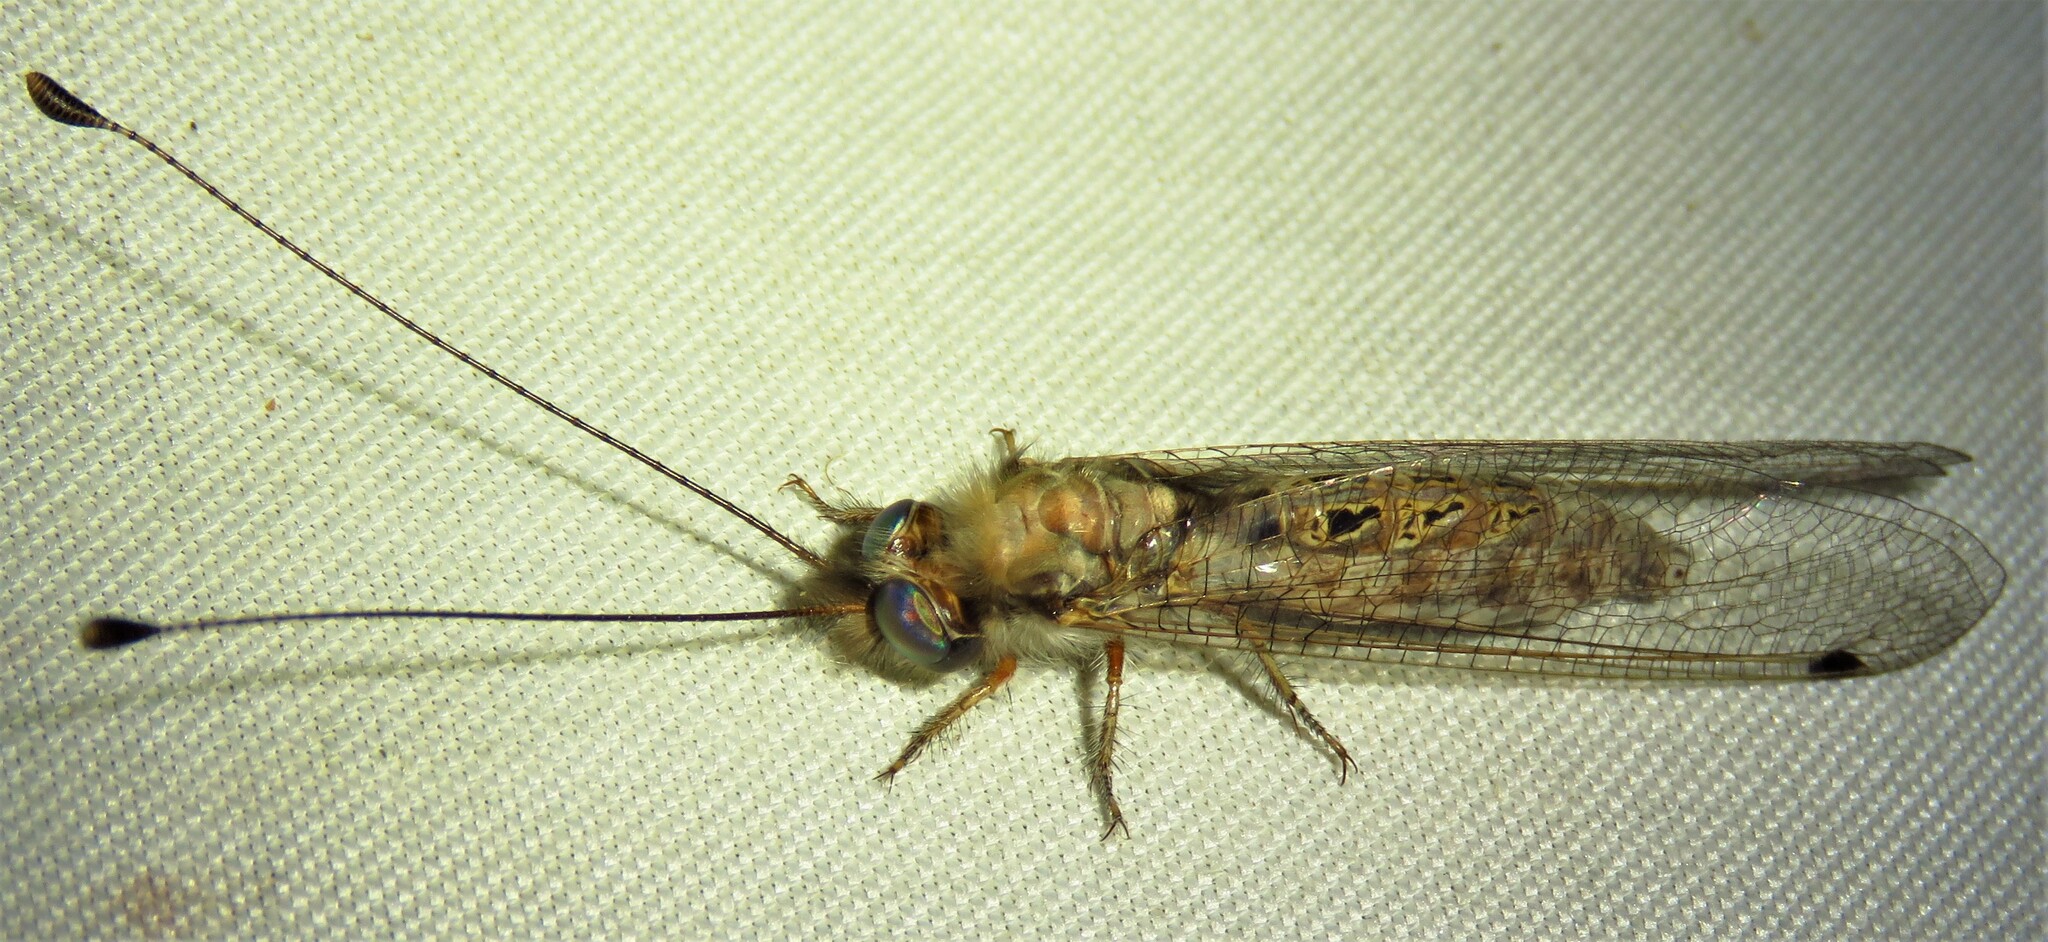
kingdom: Animalia
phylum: Arthropoda
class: Insecta
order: Neuroptera
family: Ascalaphidae
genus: Ululodes
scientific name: Ululodes macleayanus
